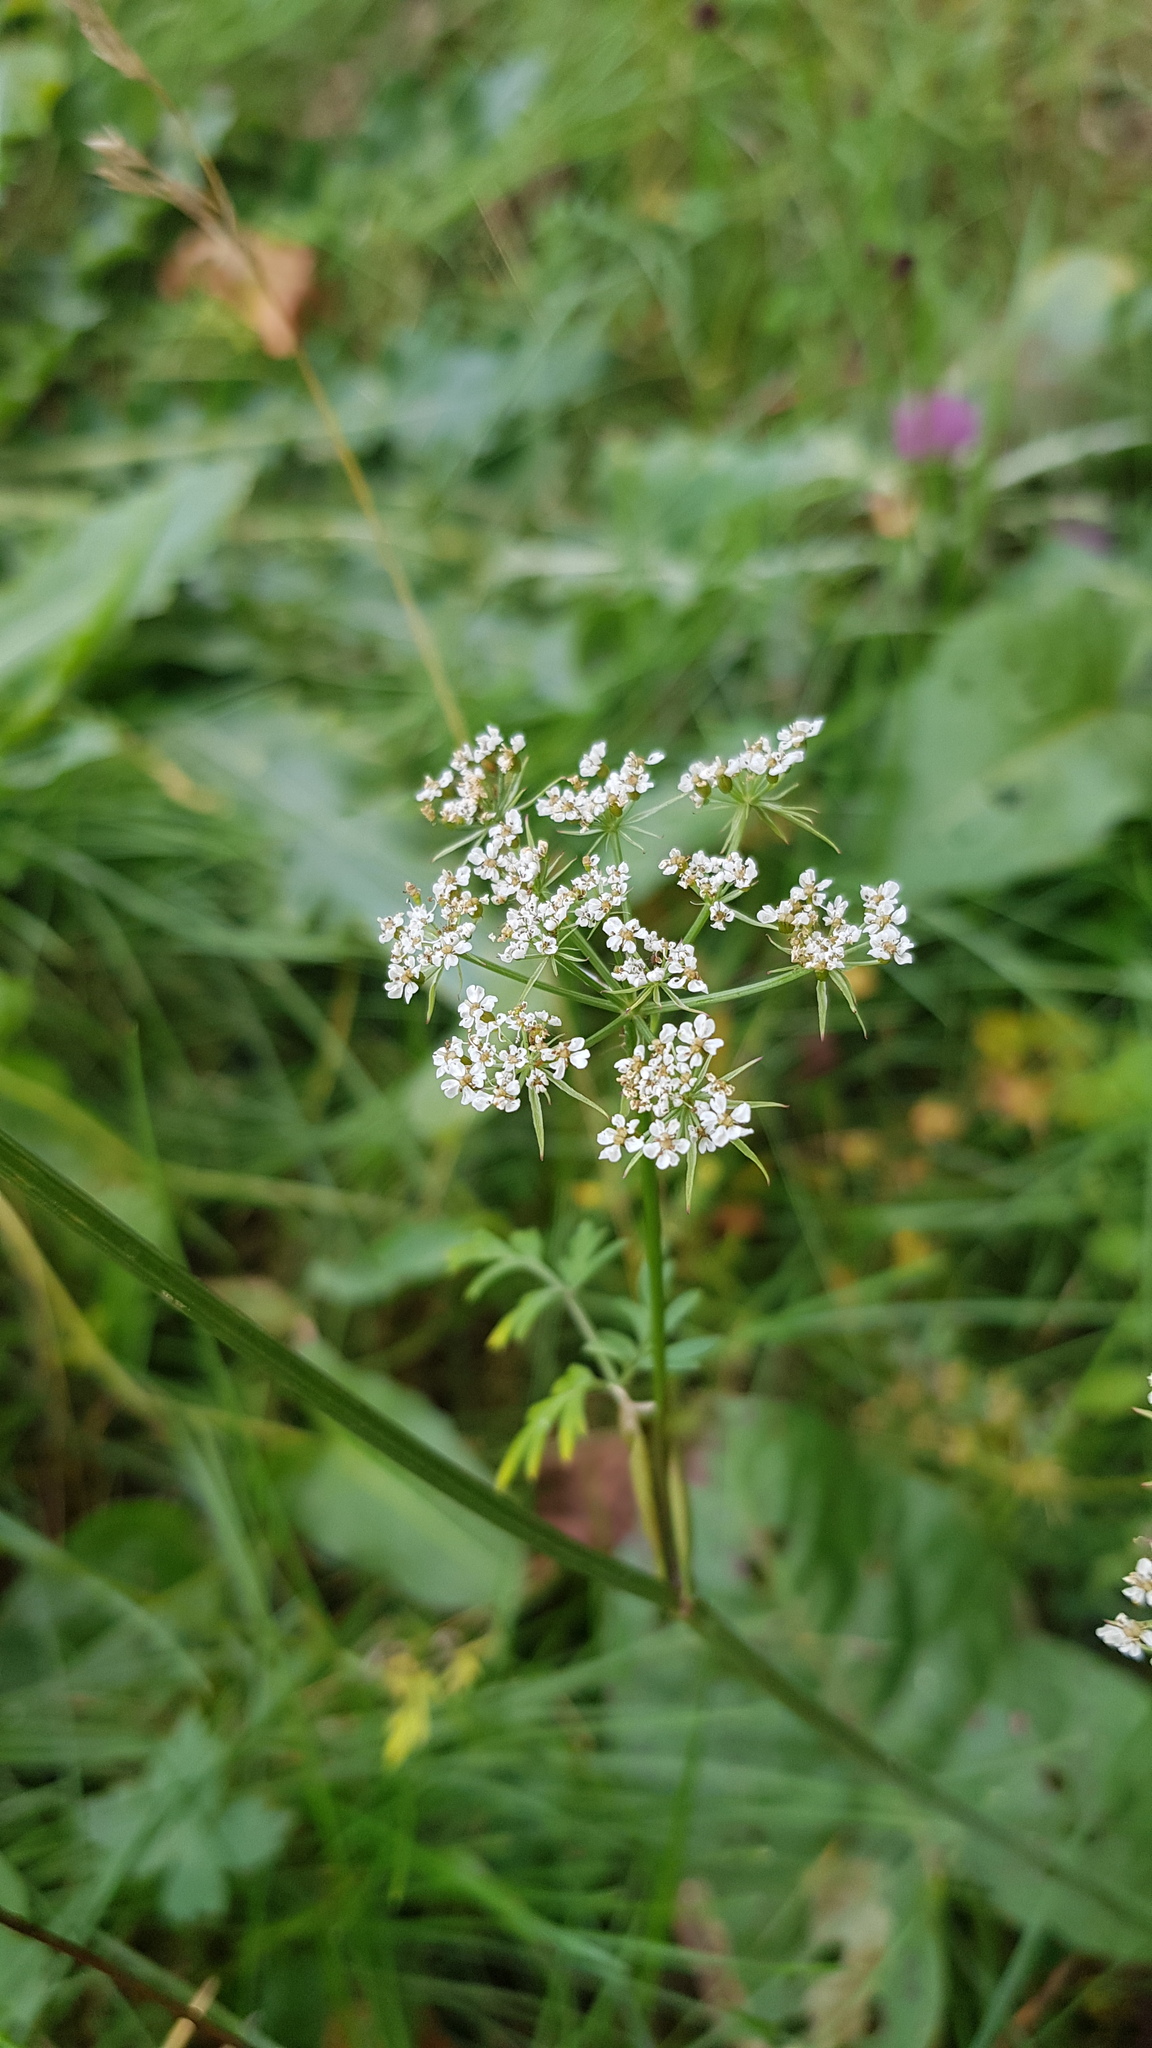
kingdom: Plantae
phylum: Tracheophyta
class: Magnoliopsida
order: Apiales
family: Apiaceae
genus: Conioselinum
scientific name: Conioselinum tataricum
